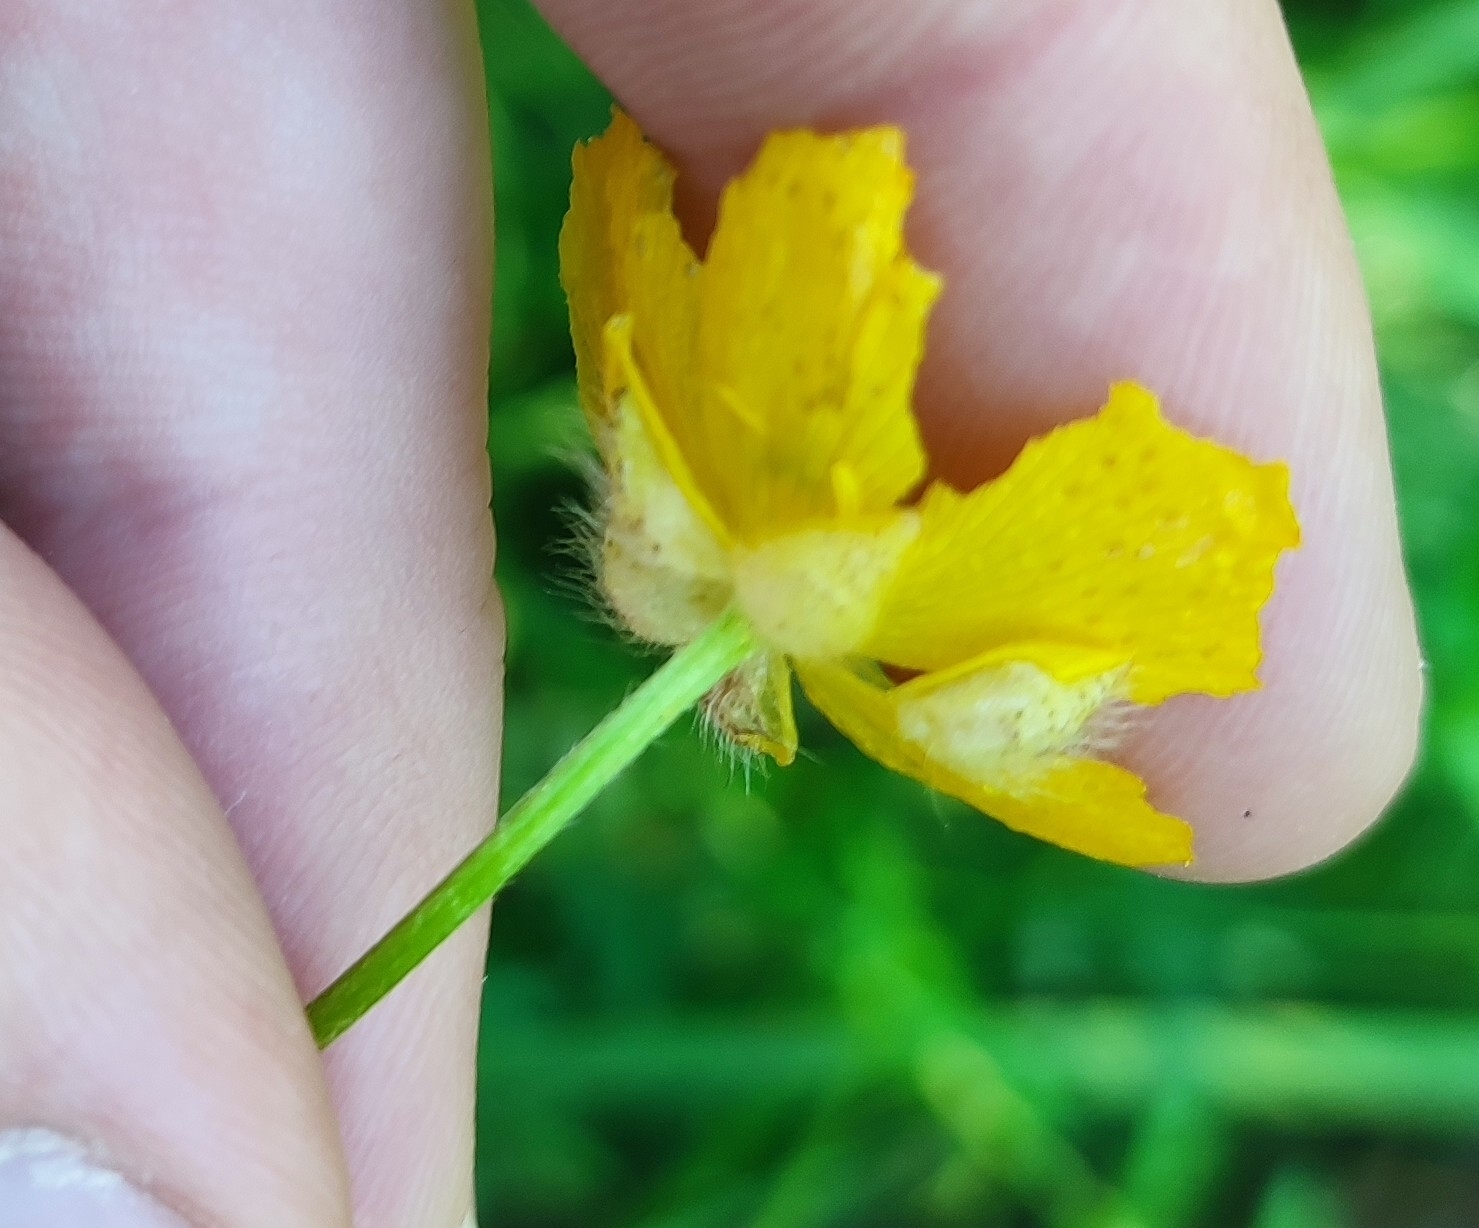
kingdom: Plantae
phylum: Tracheophyta
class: Magnoliopsida
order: Ranunculales
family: Ranunculaceae
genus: Ranunculus
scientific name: Ranunculus polyanthemos
